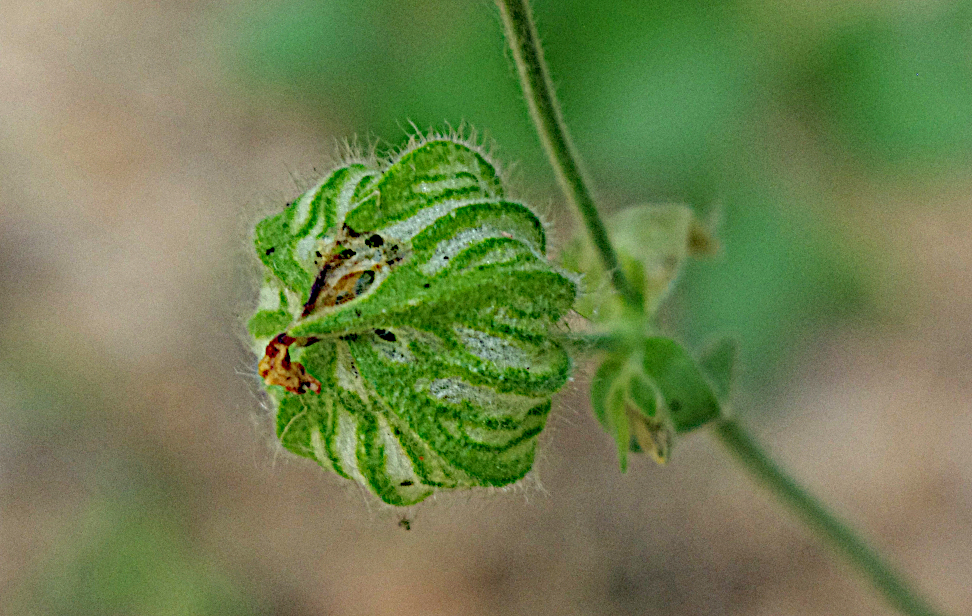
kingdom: Plantae
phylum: Tracheophyta
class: Magnoliopsida
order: Caryophyllales
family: Caryophyllaceae
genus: Silene
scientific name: Silene latifolia
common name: White campion
